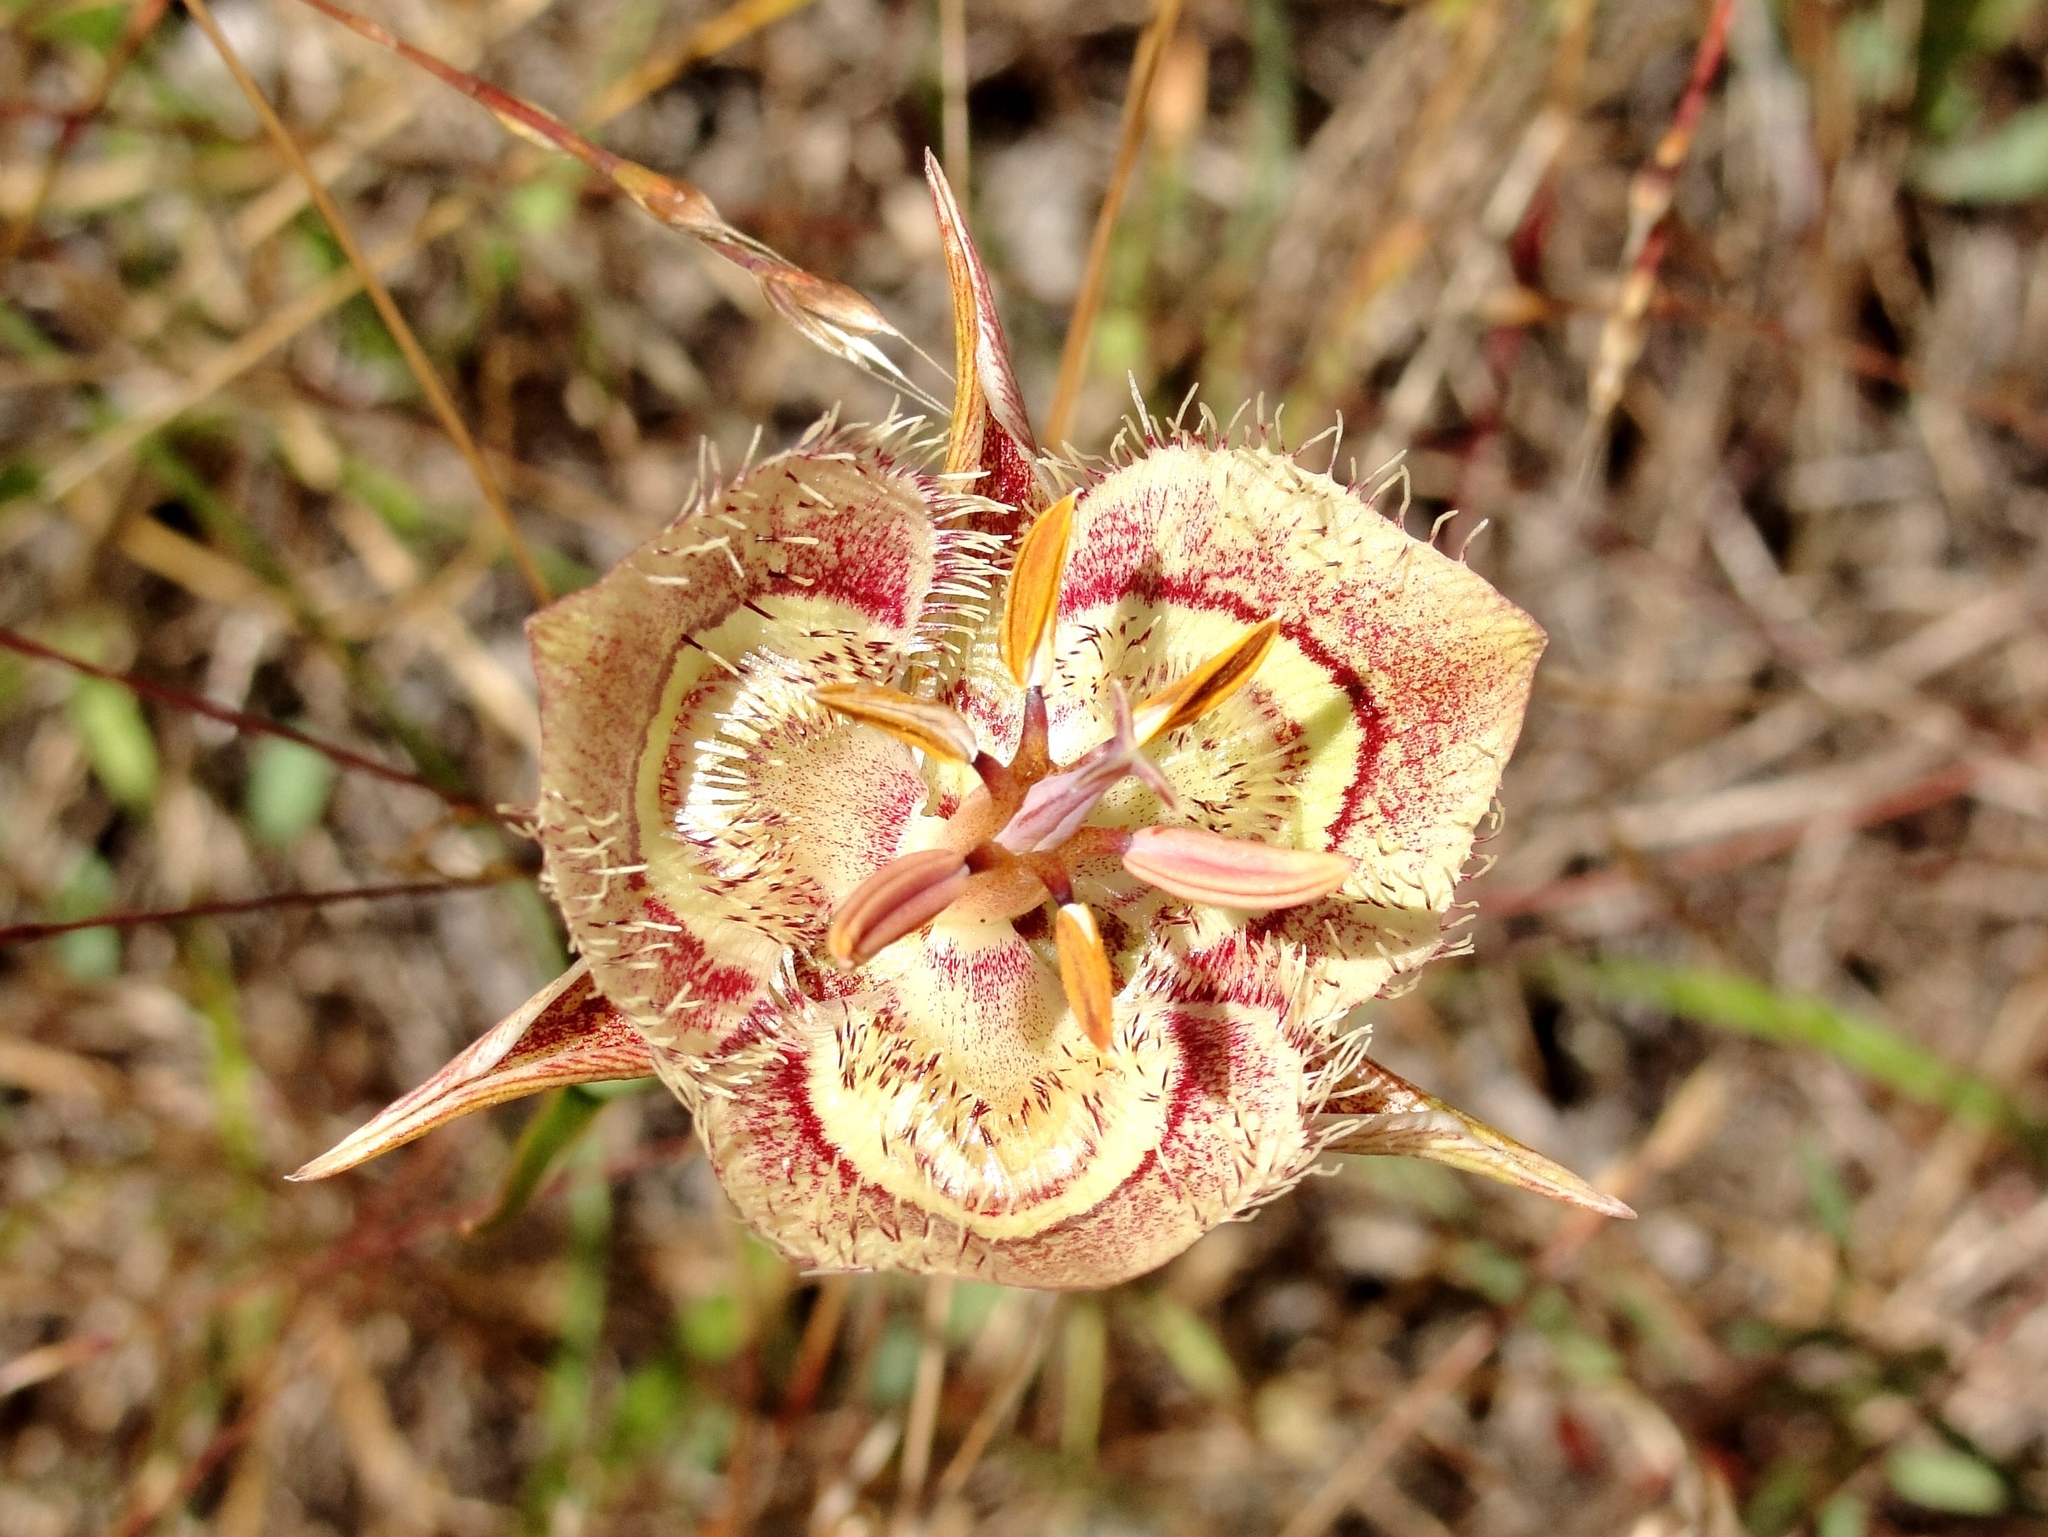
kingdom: Plantae
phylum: Tracheophyta
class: Liliopsida
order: Liliales
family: Liliaceae
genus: Calochortus
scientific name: Calochortus tiburonensis
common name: Tiburon mariposa-lily
